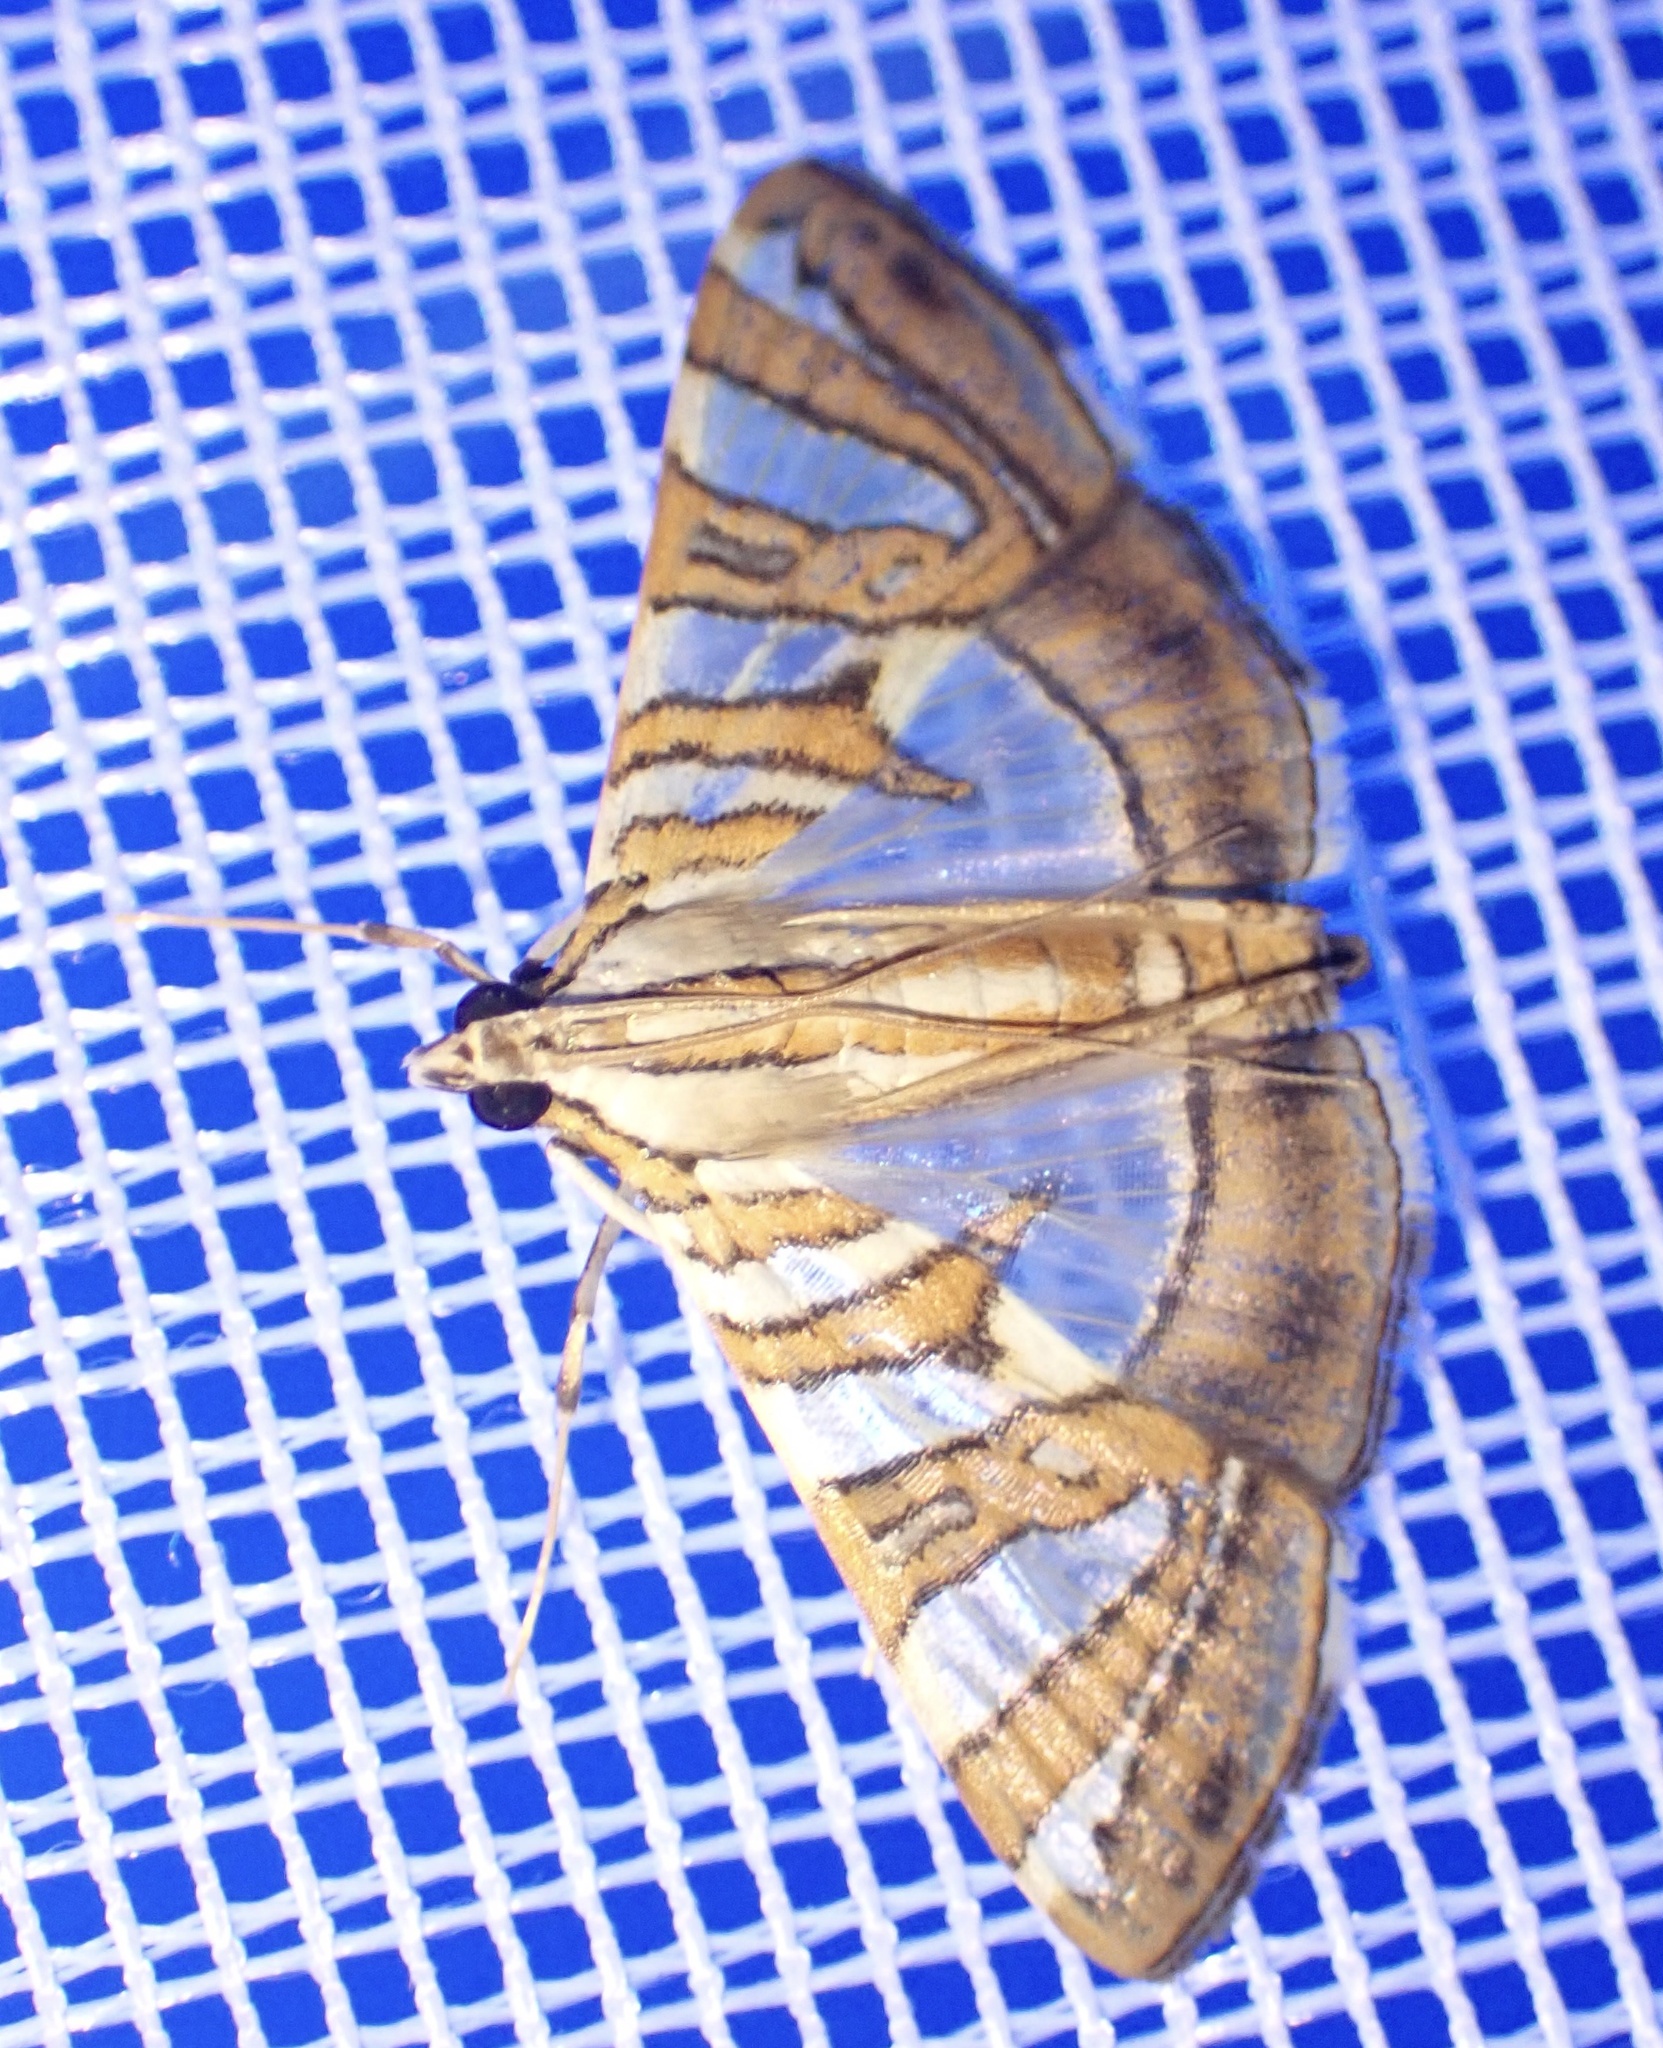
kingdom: Animalia
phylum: Arthropoda
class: Insecta
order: Lepidoptera
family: Crambidae
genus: Caloptychia
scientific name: Caloptychia chrysialis
